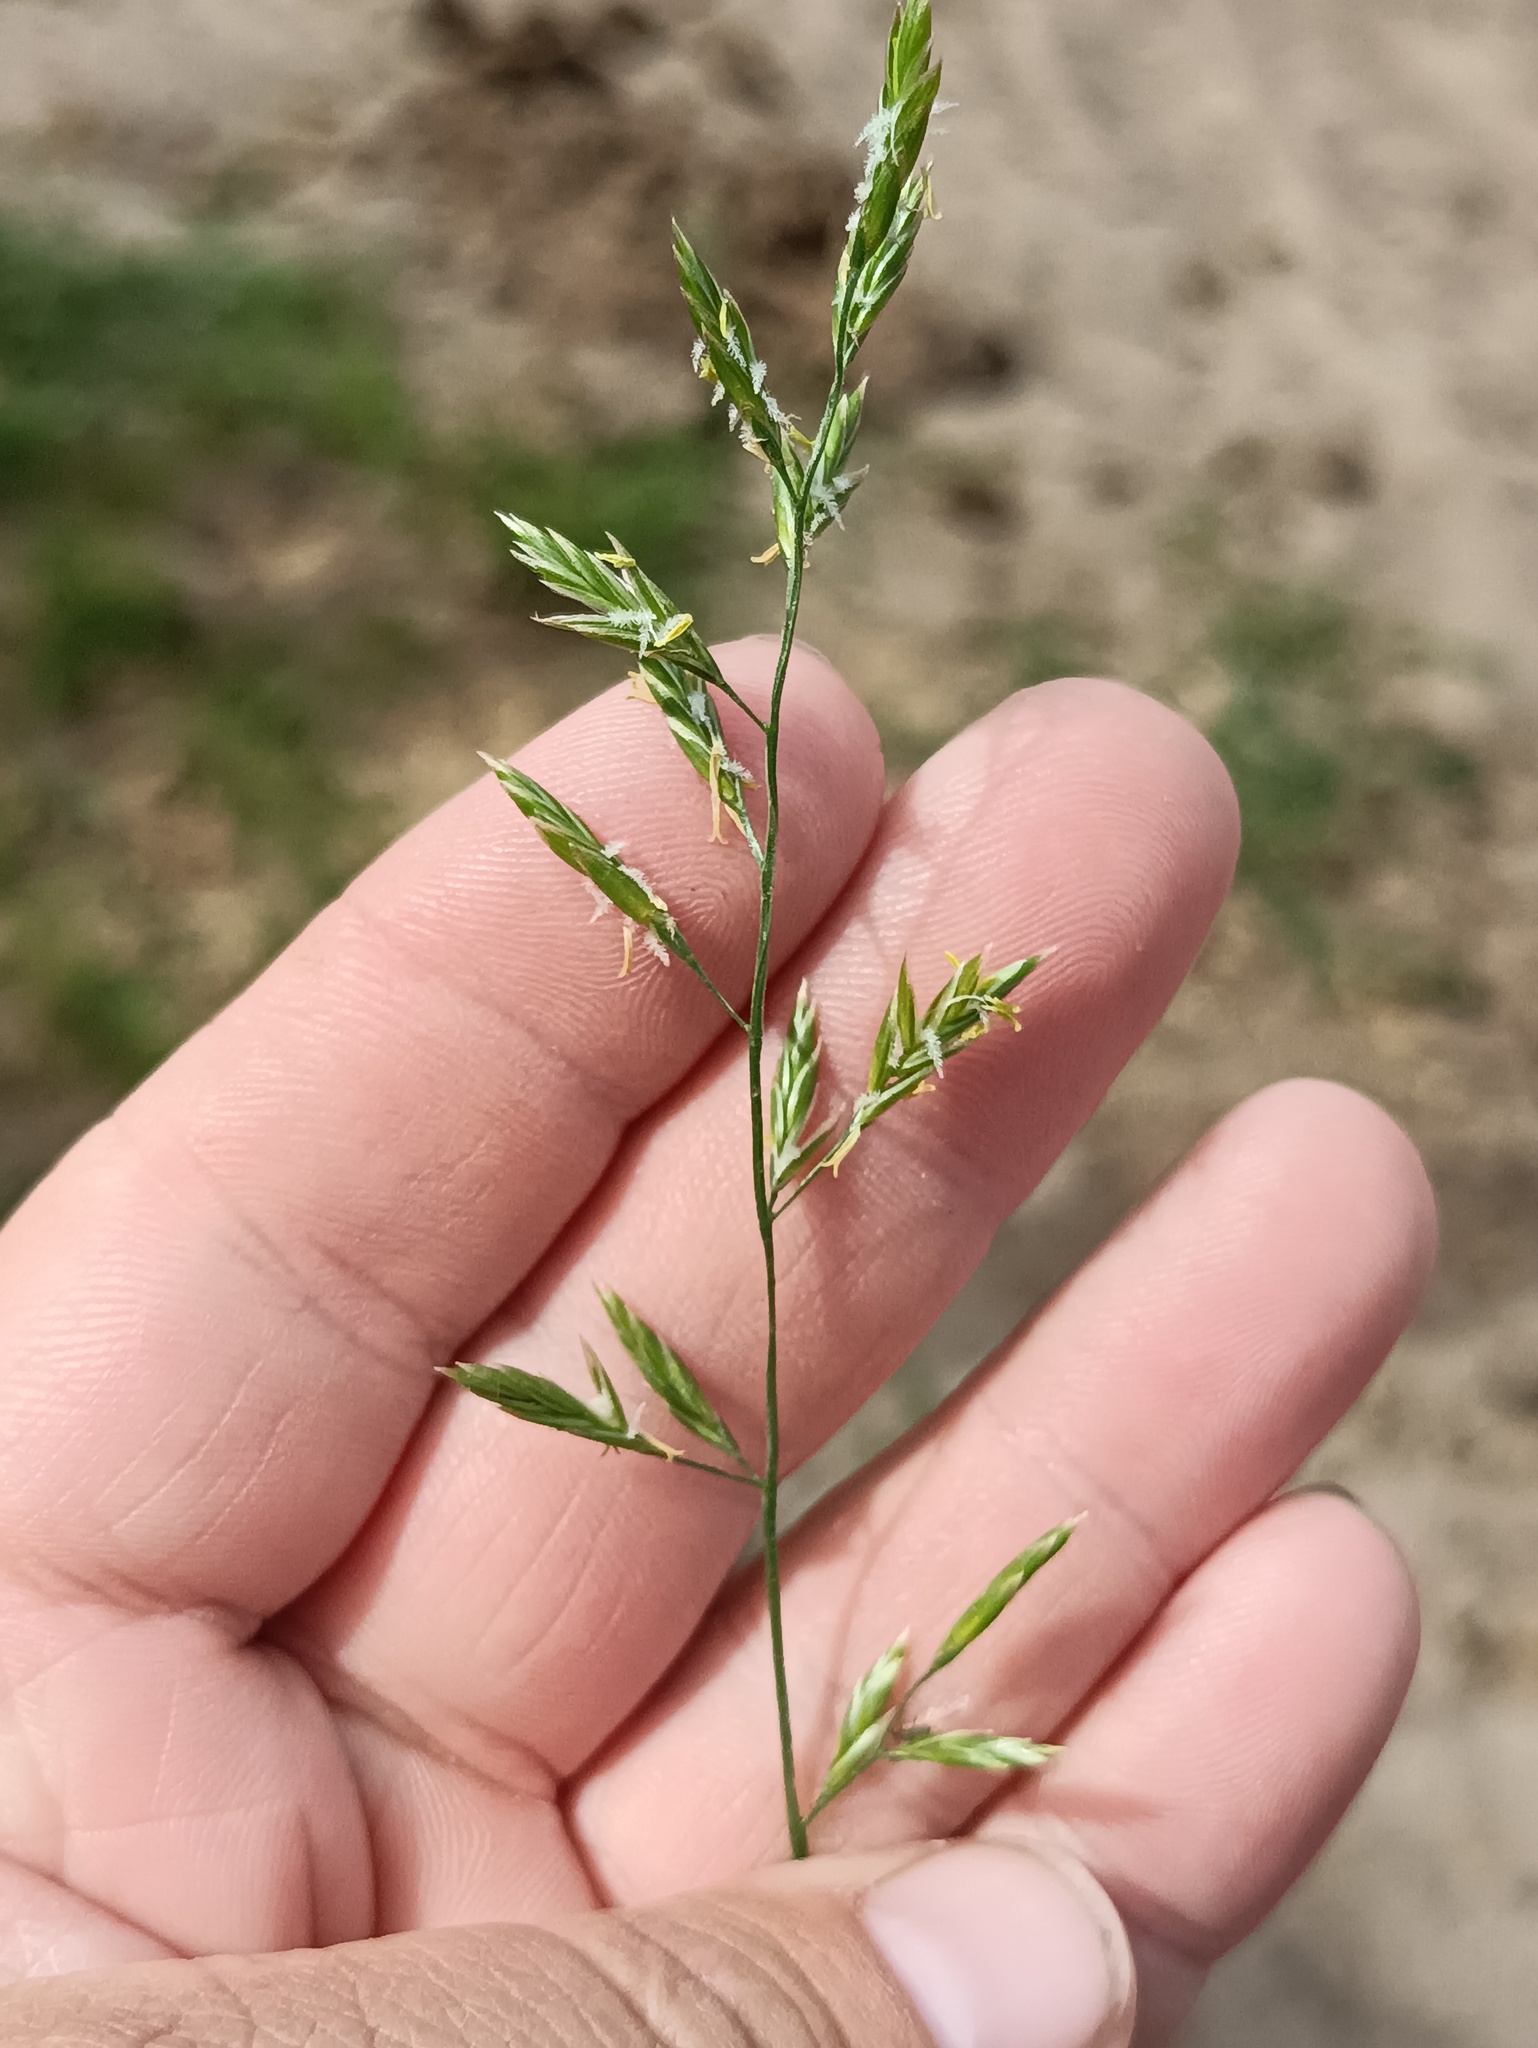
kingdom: Plantae
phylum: Tracheophyta
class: Liliopsida
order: Poales
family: Poaceae
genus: Lolium
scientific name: Lolium pratense
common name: Dover grass
